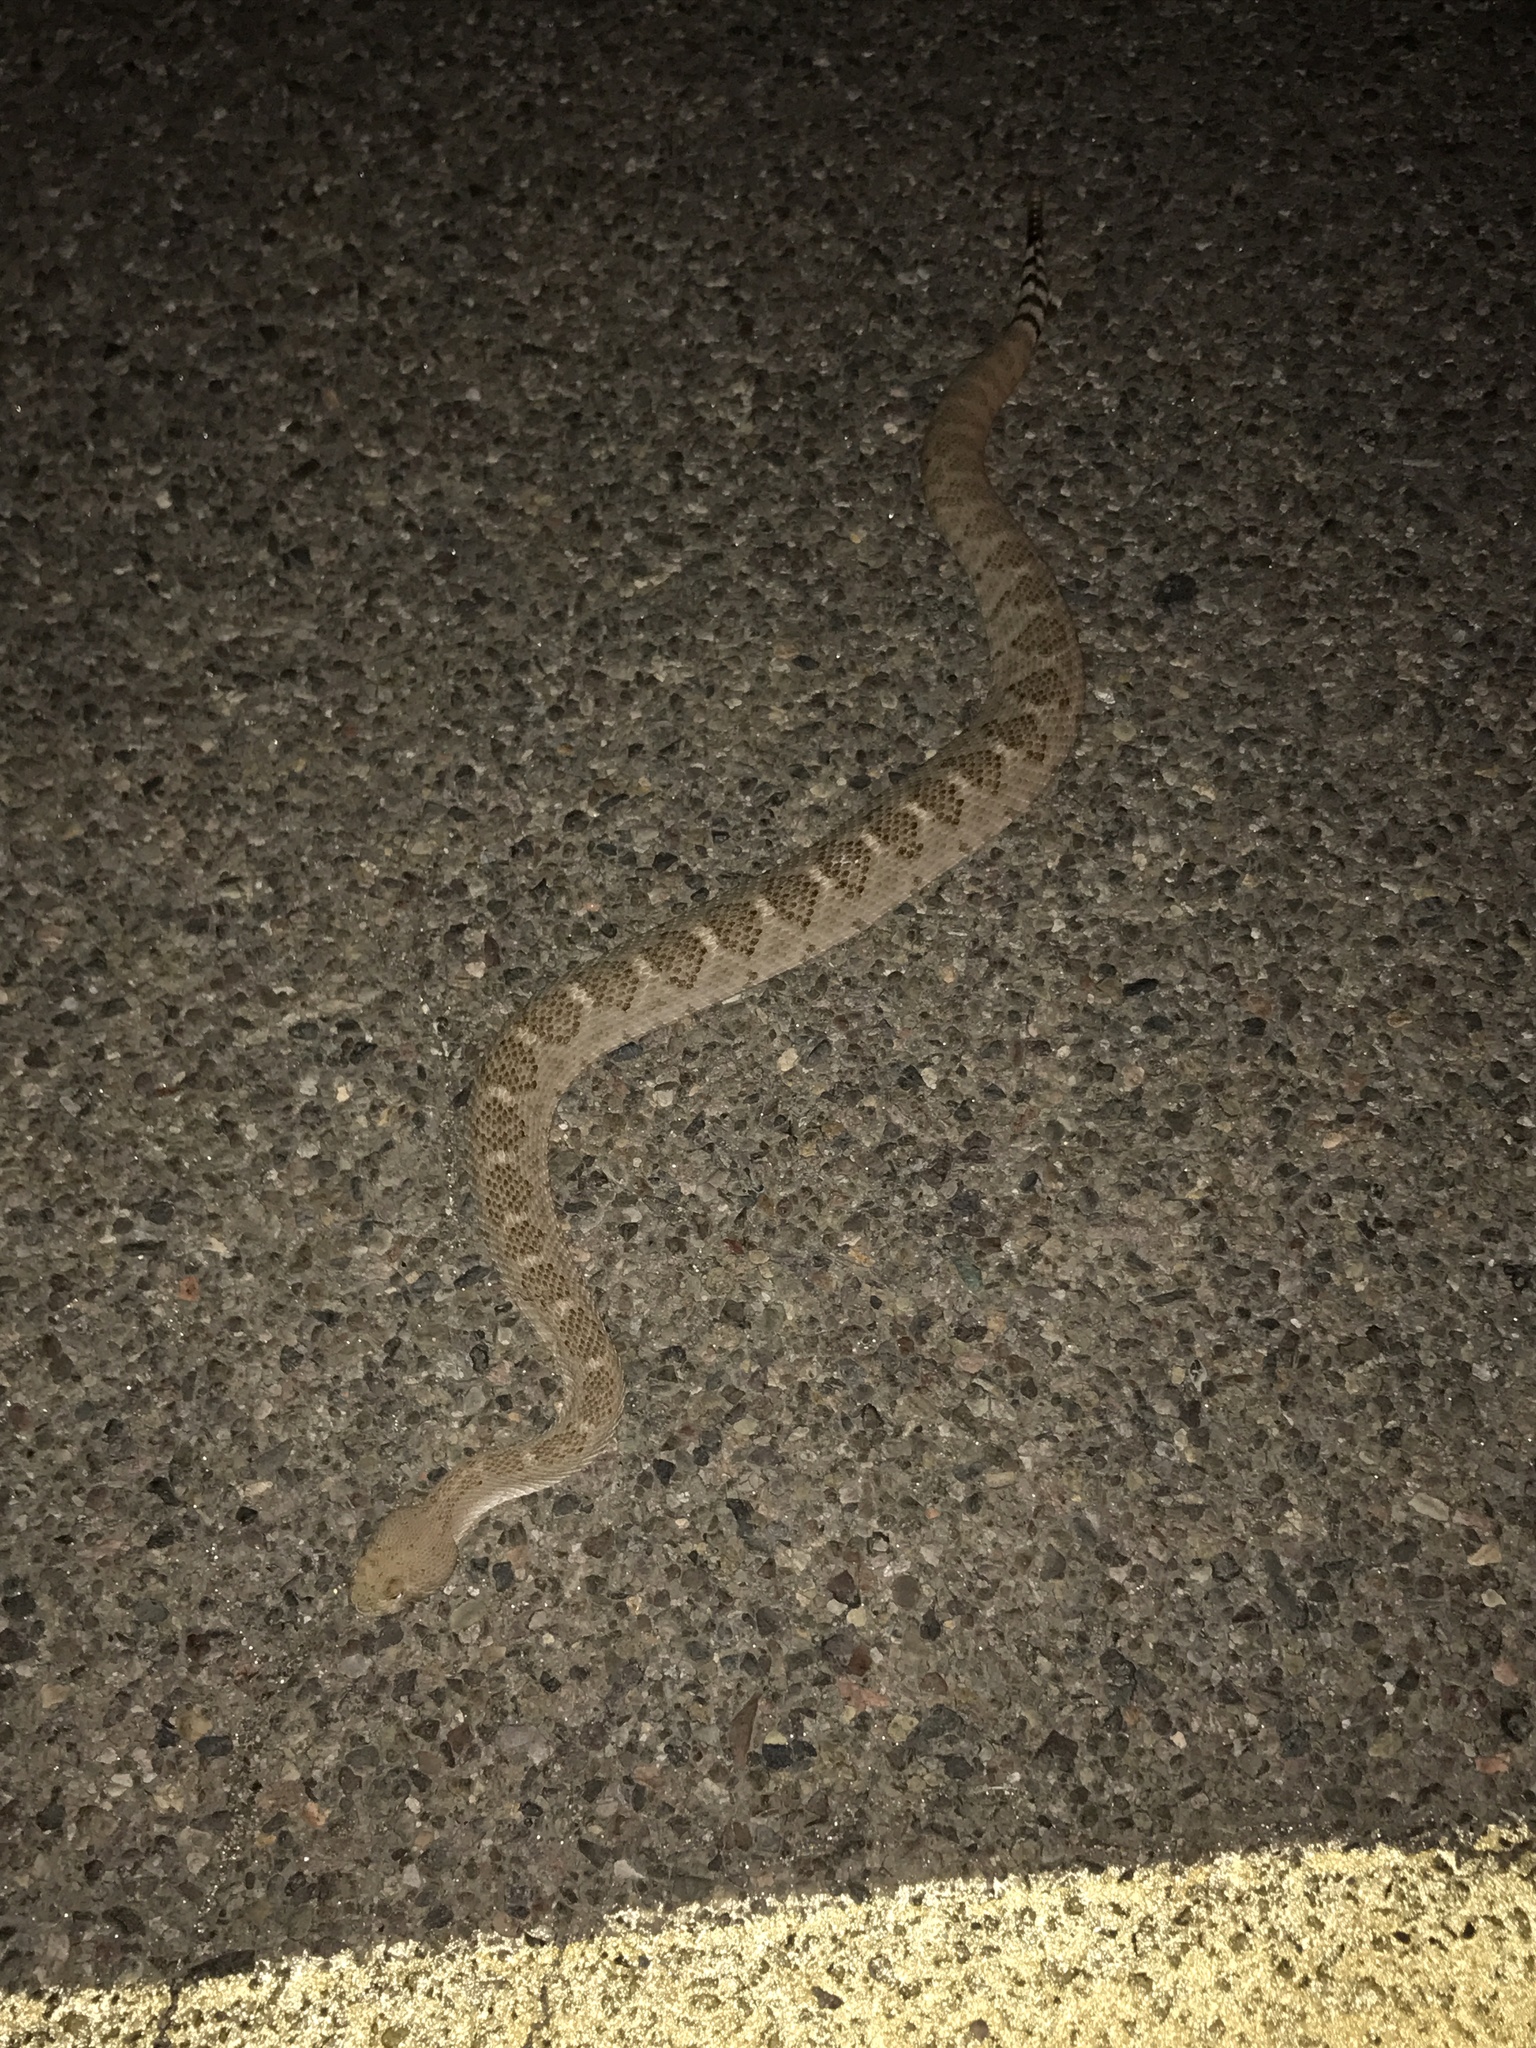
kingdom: Animalia
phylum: Chordata
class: Squamata
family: Viperidae
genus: Crotalus
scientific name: Crotalus atrox
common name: Western diamond-backed rattlesnake
